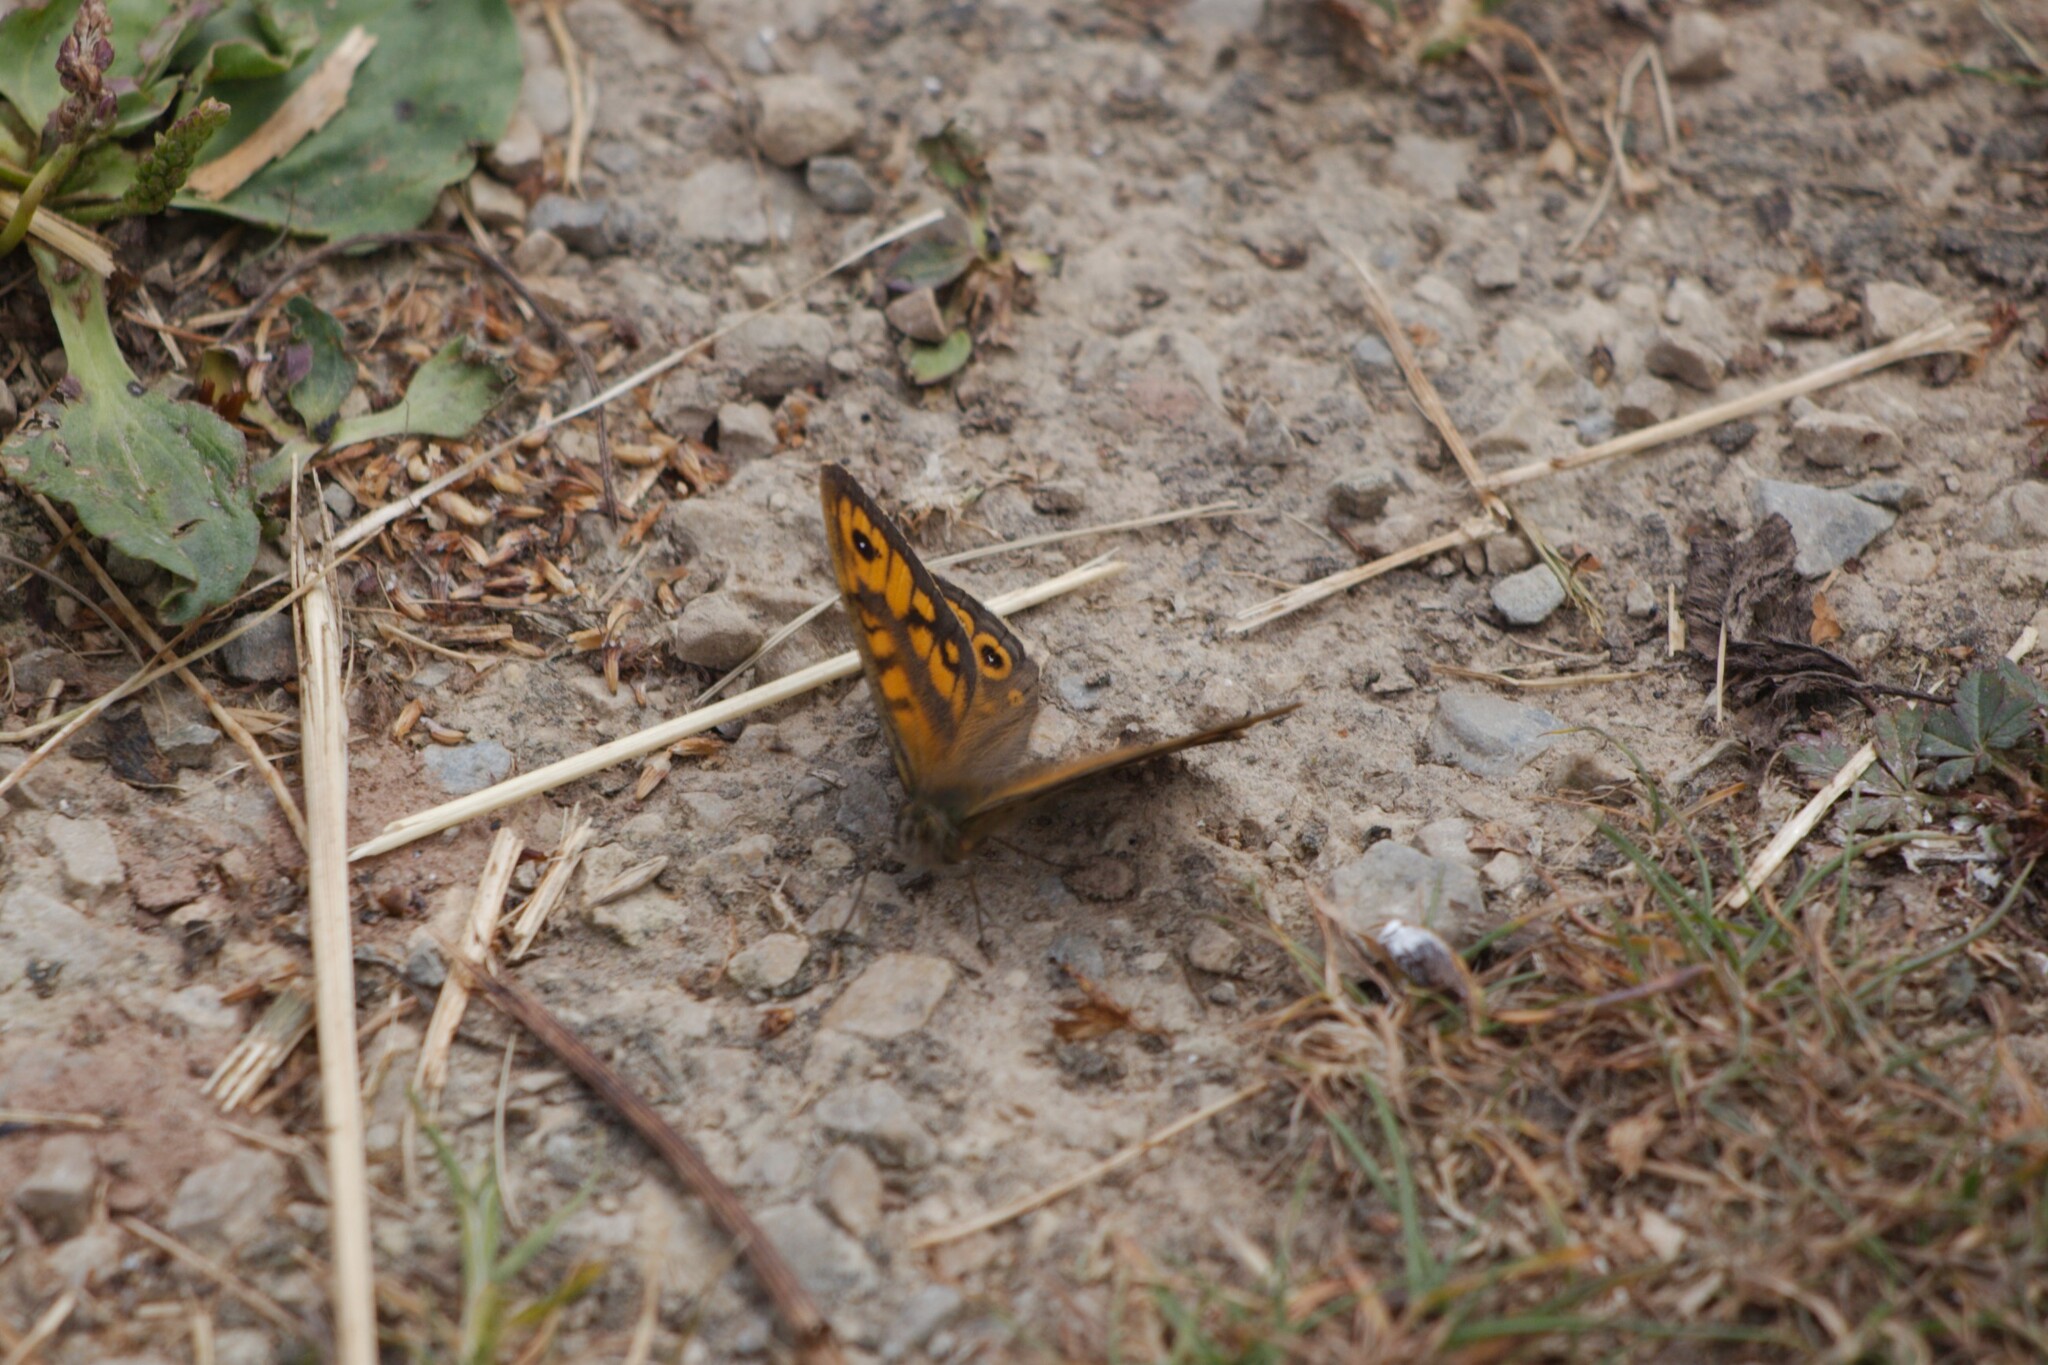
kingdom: Animalia
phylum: Arthropoda
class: Insecta
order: Lepidoptera
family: Nymphalidae
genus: Pararge
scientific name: Pararge Lasiommata megera
